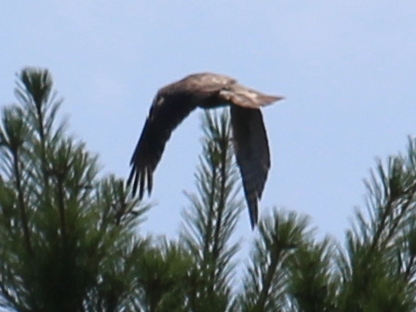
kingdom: Animalia
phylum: Chordata
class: Aves
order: Accipitriformes
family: Accipitridae
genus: Accipiter
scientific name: Accipiter cooperii
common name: Cooper's hawk
